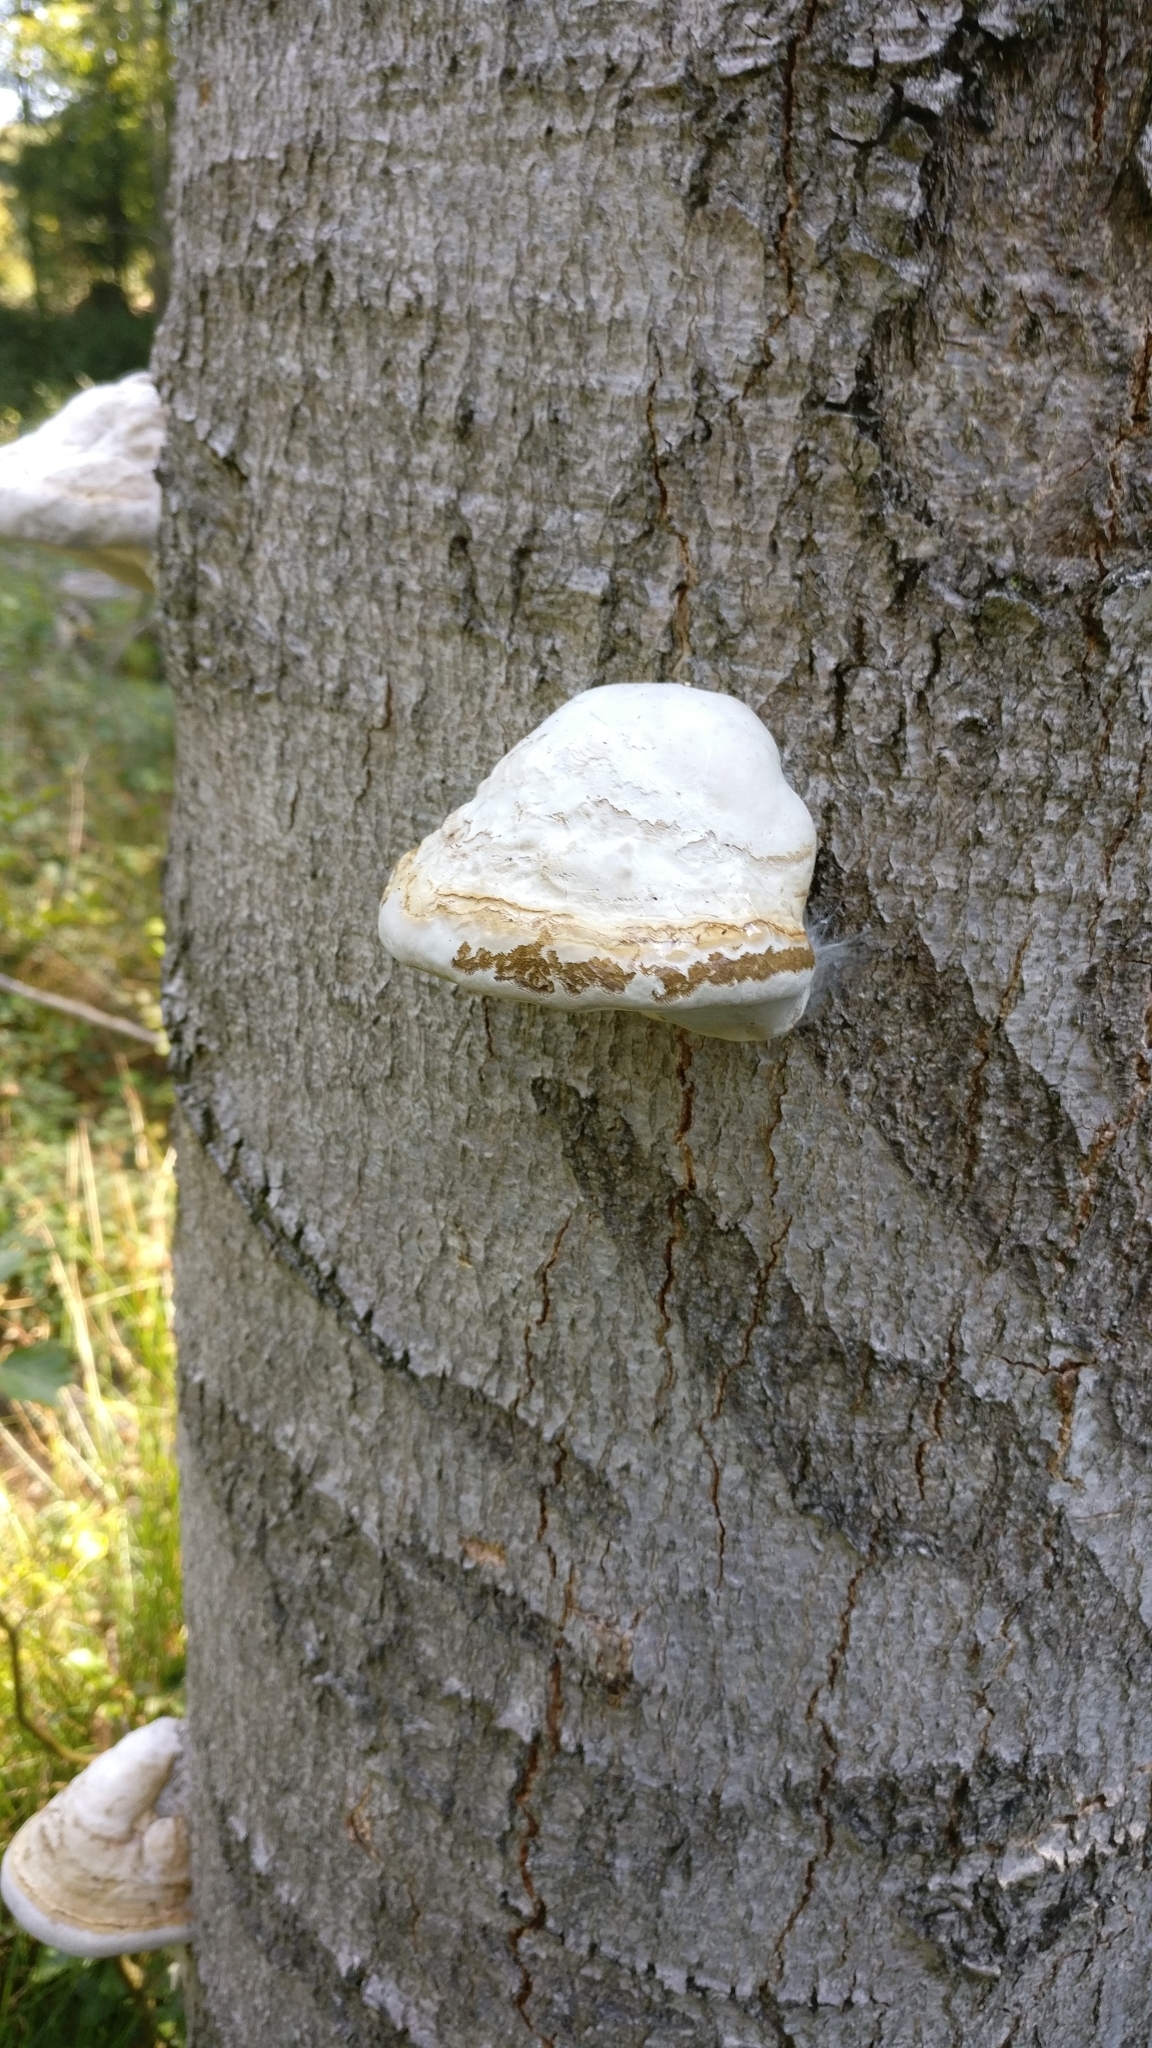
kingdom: Fungi
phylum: Basidiomycota
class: Agaricomycetes
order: Polyporales
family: Polyporaceae
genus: Fomes
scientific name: Fomes fomentarius
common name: Hoof fungus
